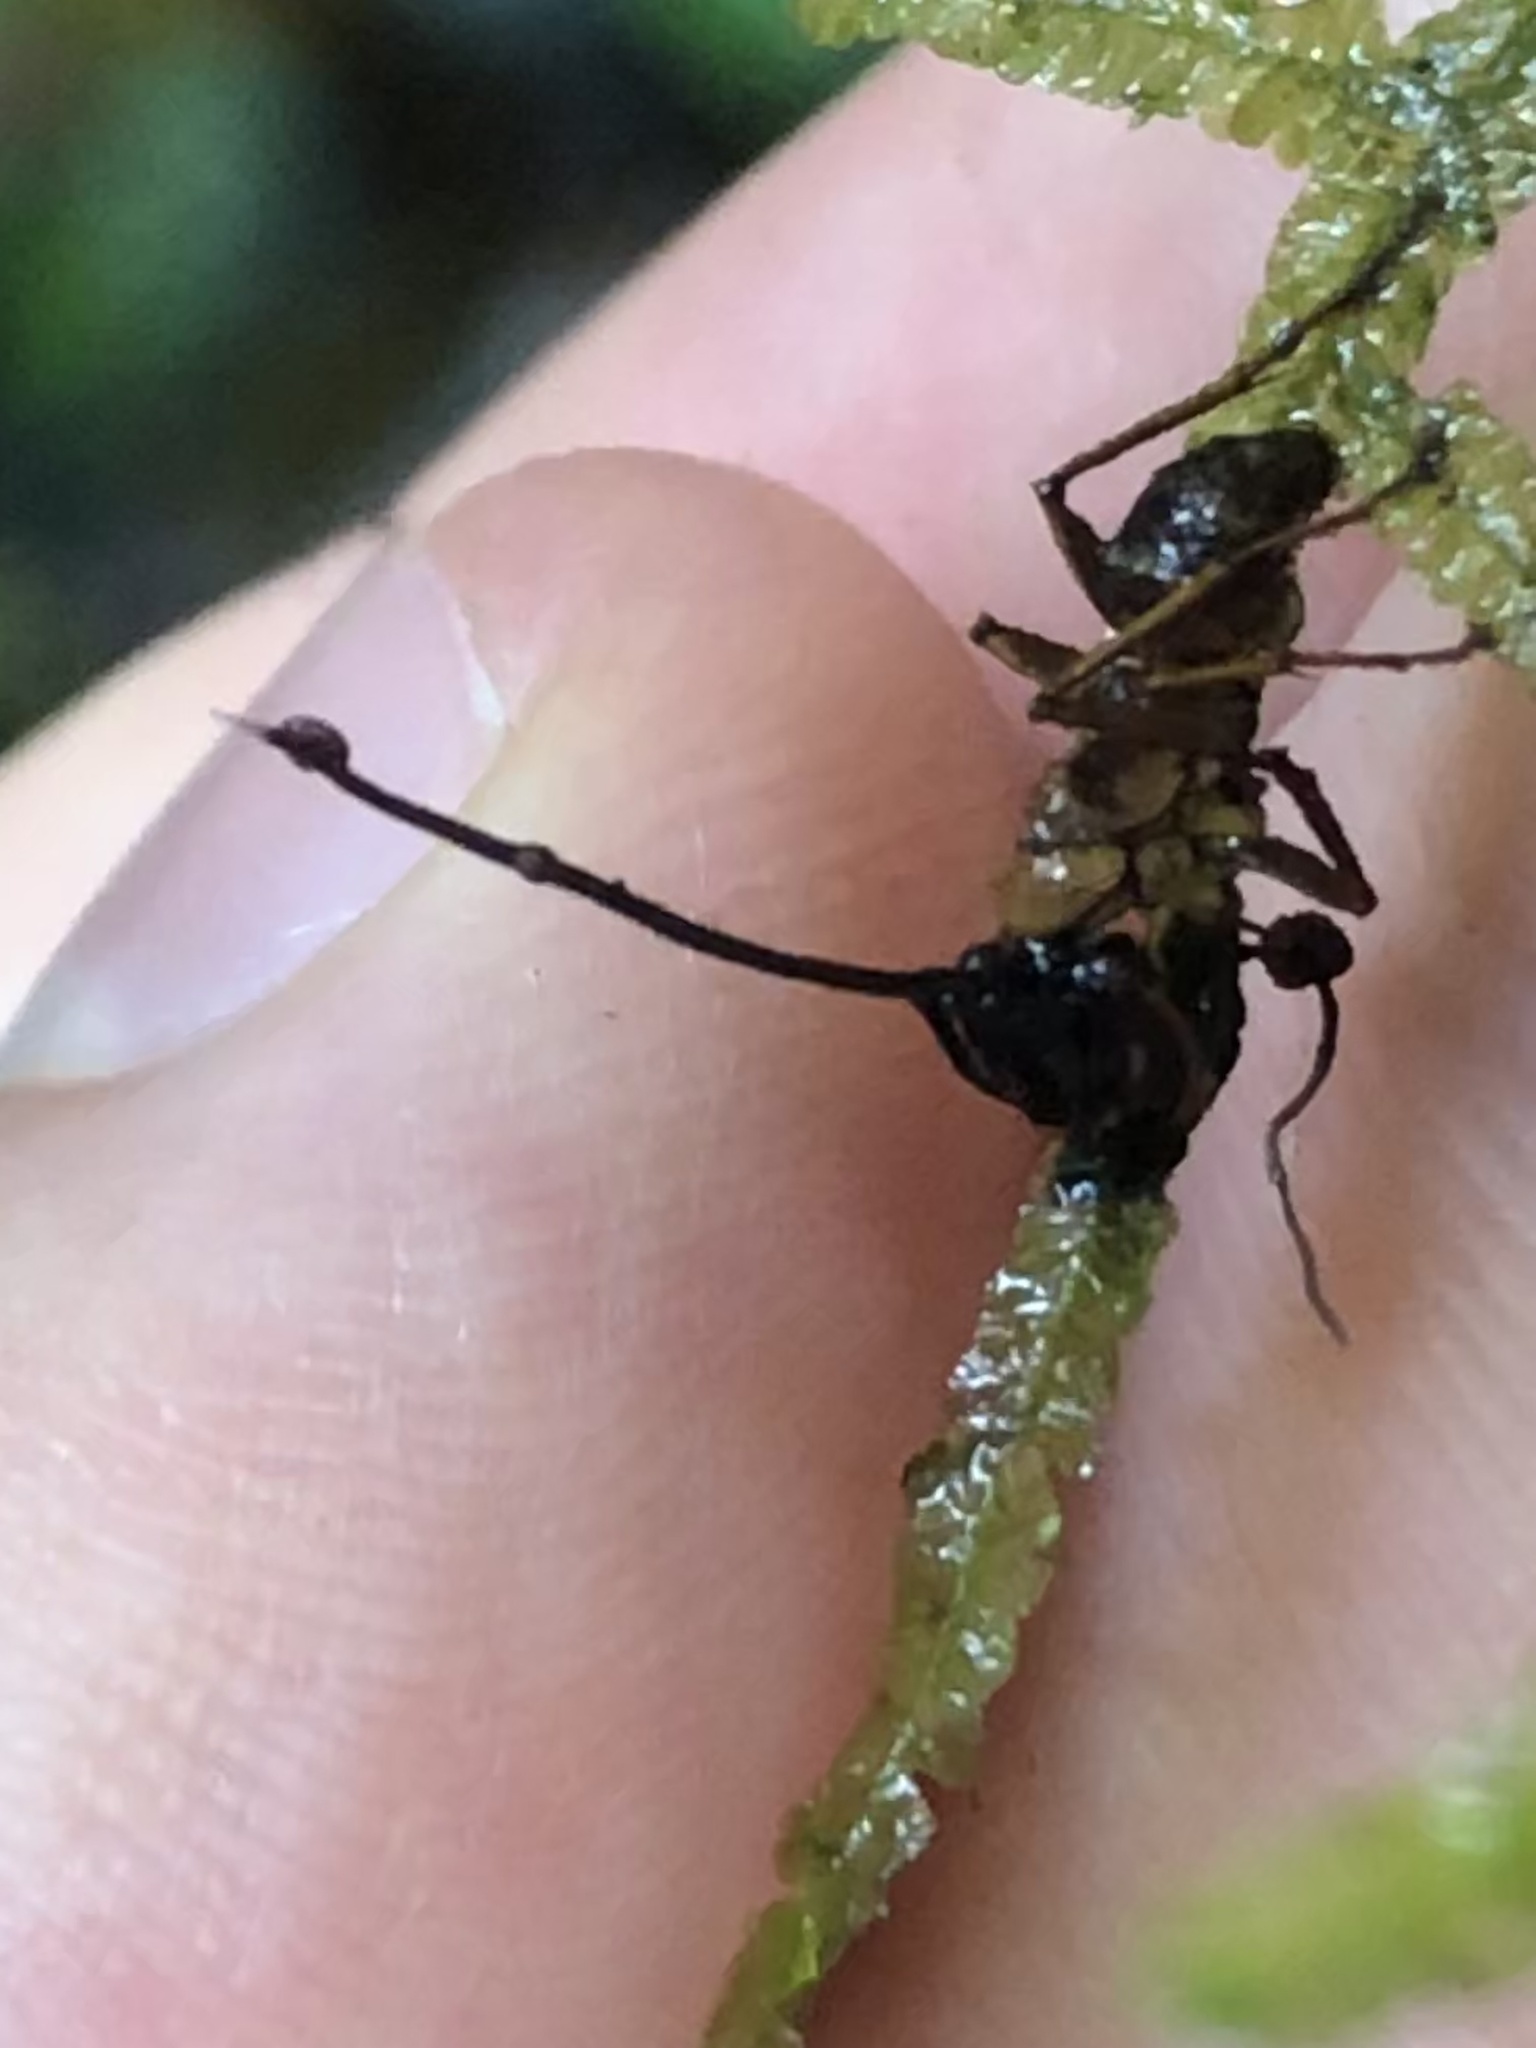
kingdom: Animalia
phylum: Arthropoda
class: Insecta
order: Hymenoptera
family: Formicidae
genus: Camponotus
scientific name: Camponotus atriceps
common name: Florida carpenter ant
